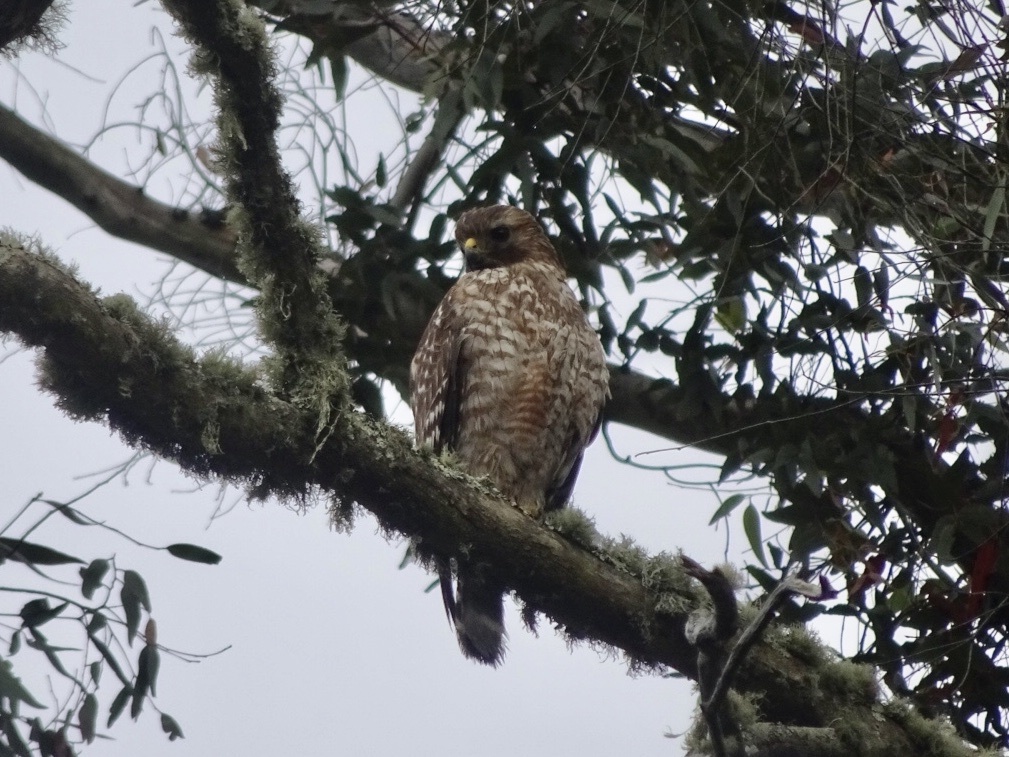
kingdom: Animalia
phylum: Chordata
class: Aves
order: Accipitriformes
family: Accipitridae
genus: Buteo
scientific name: Buteo lineatus
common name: Red-shouldered hawk
